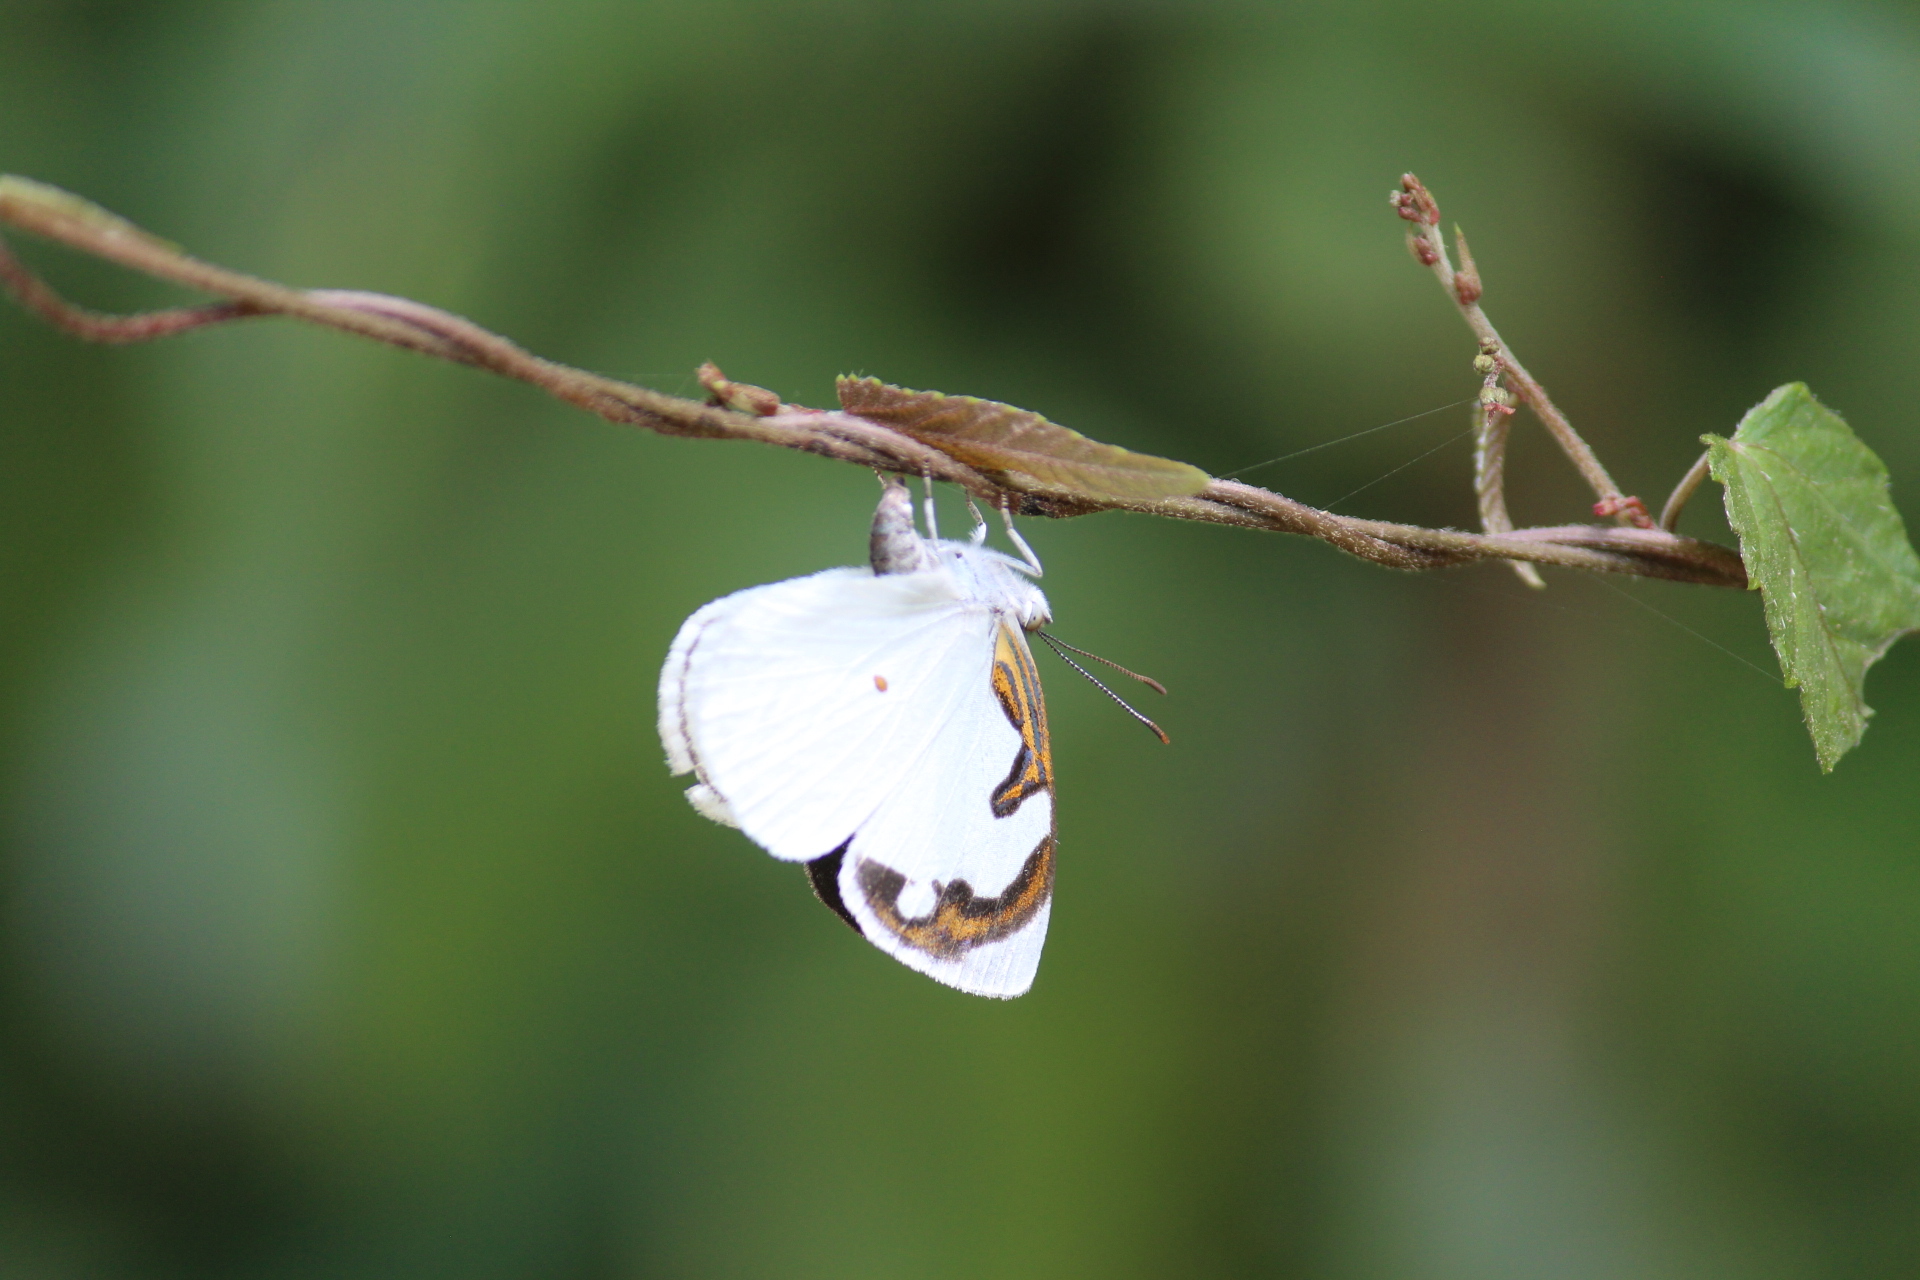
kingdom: Animalia
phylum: Arthropoda
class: Insecta
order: Lepidoptera
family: Nymphalidae
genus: Dynamine
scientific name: Dynamine myrrhina
